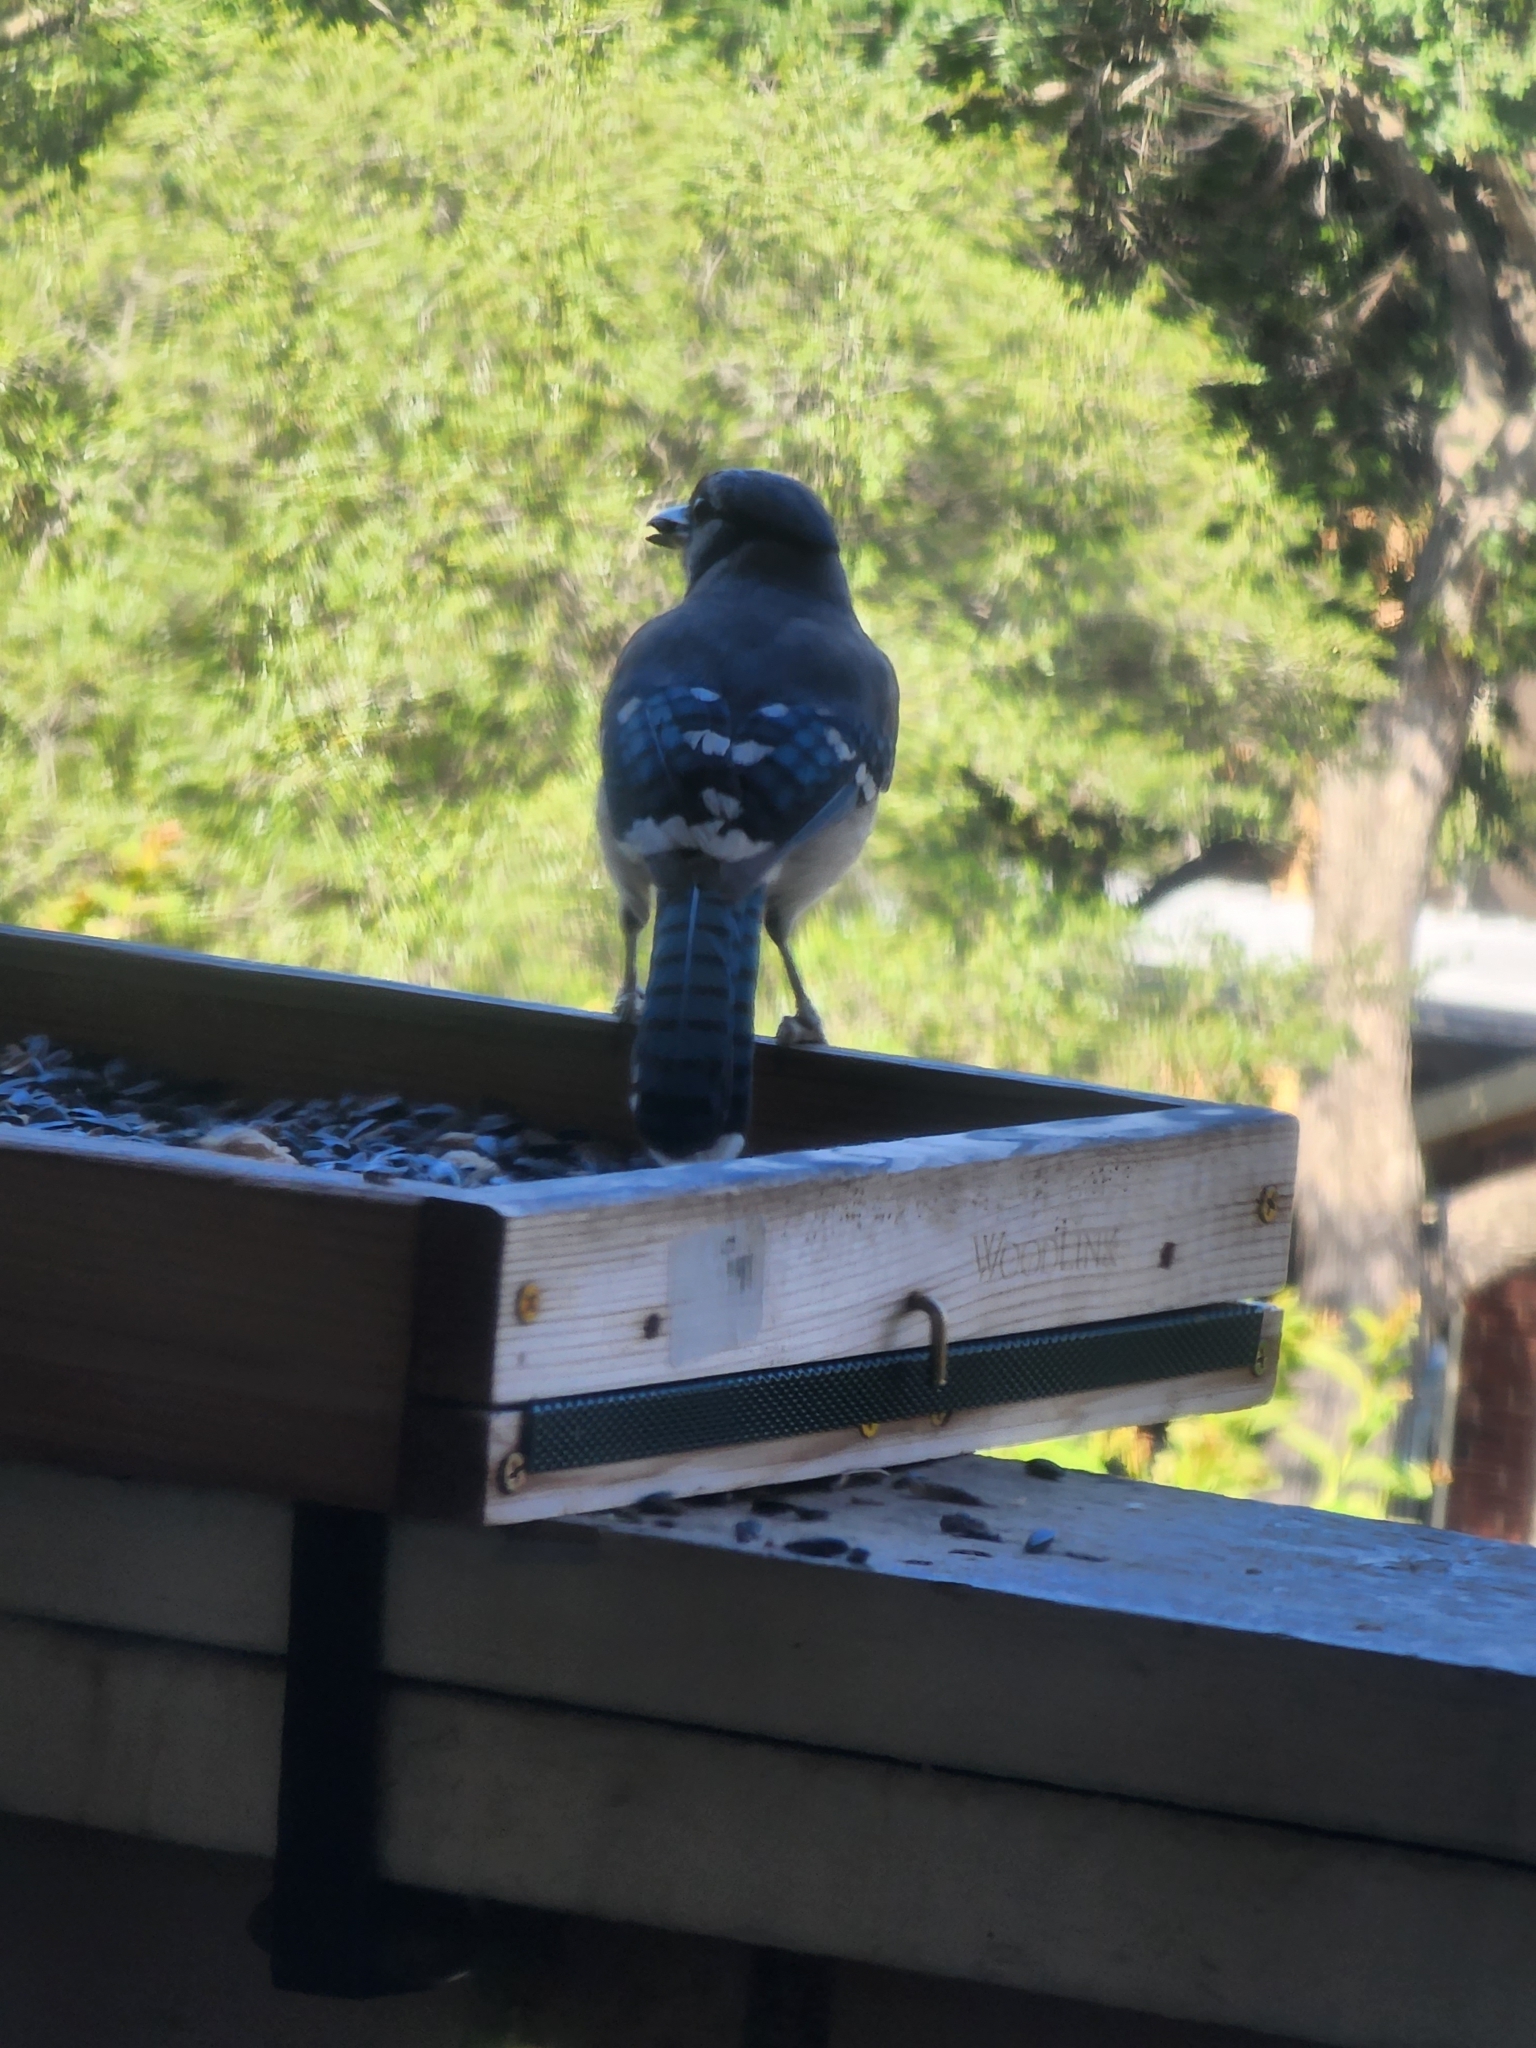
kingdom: Animalia
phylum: Chordata
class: Aves
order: Passeriformes
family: Corvidae
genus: Cyanocitta
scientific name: Cyanocitta cristata
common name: Blue jay
